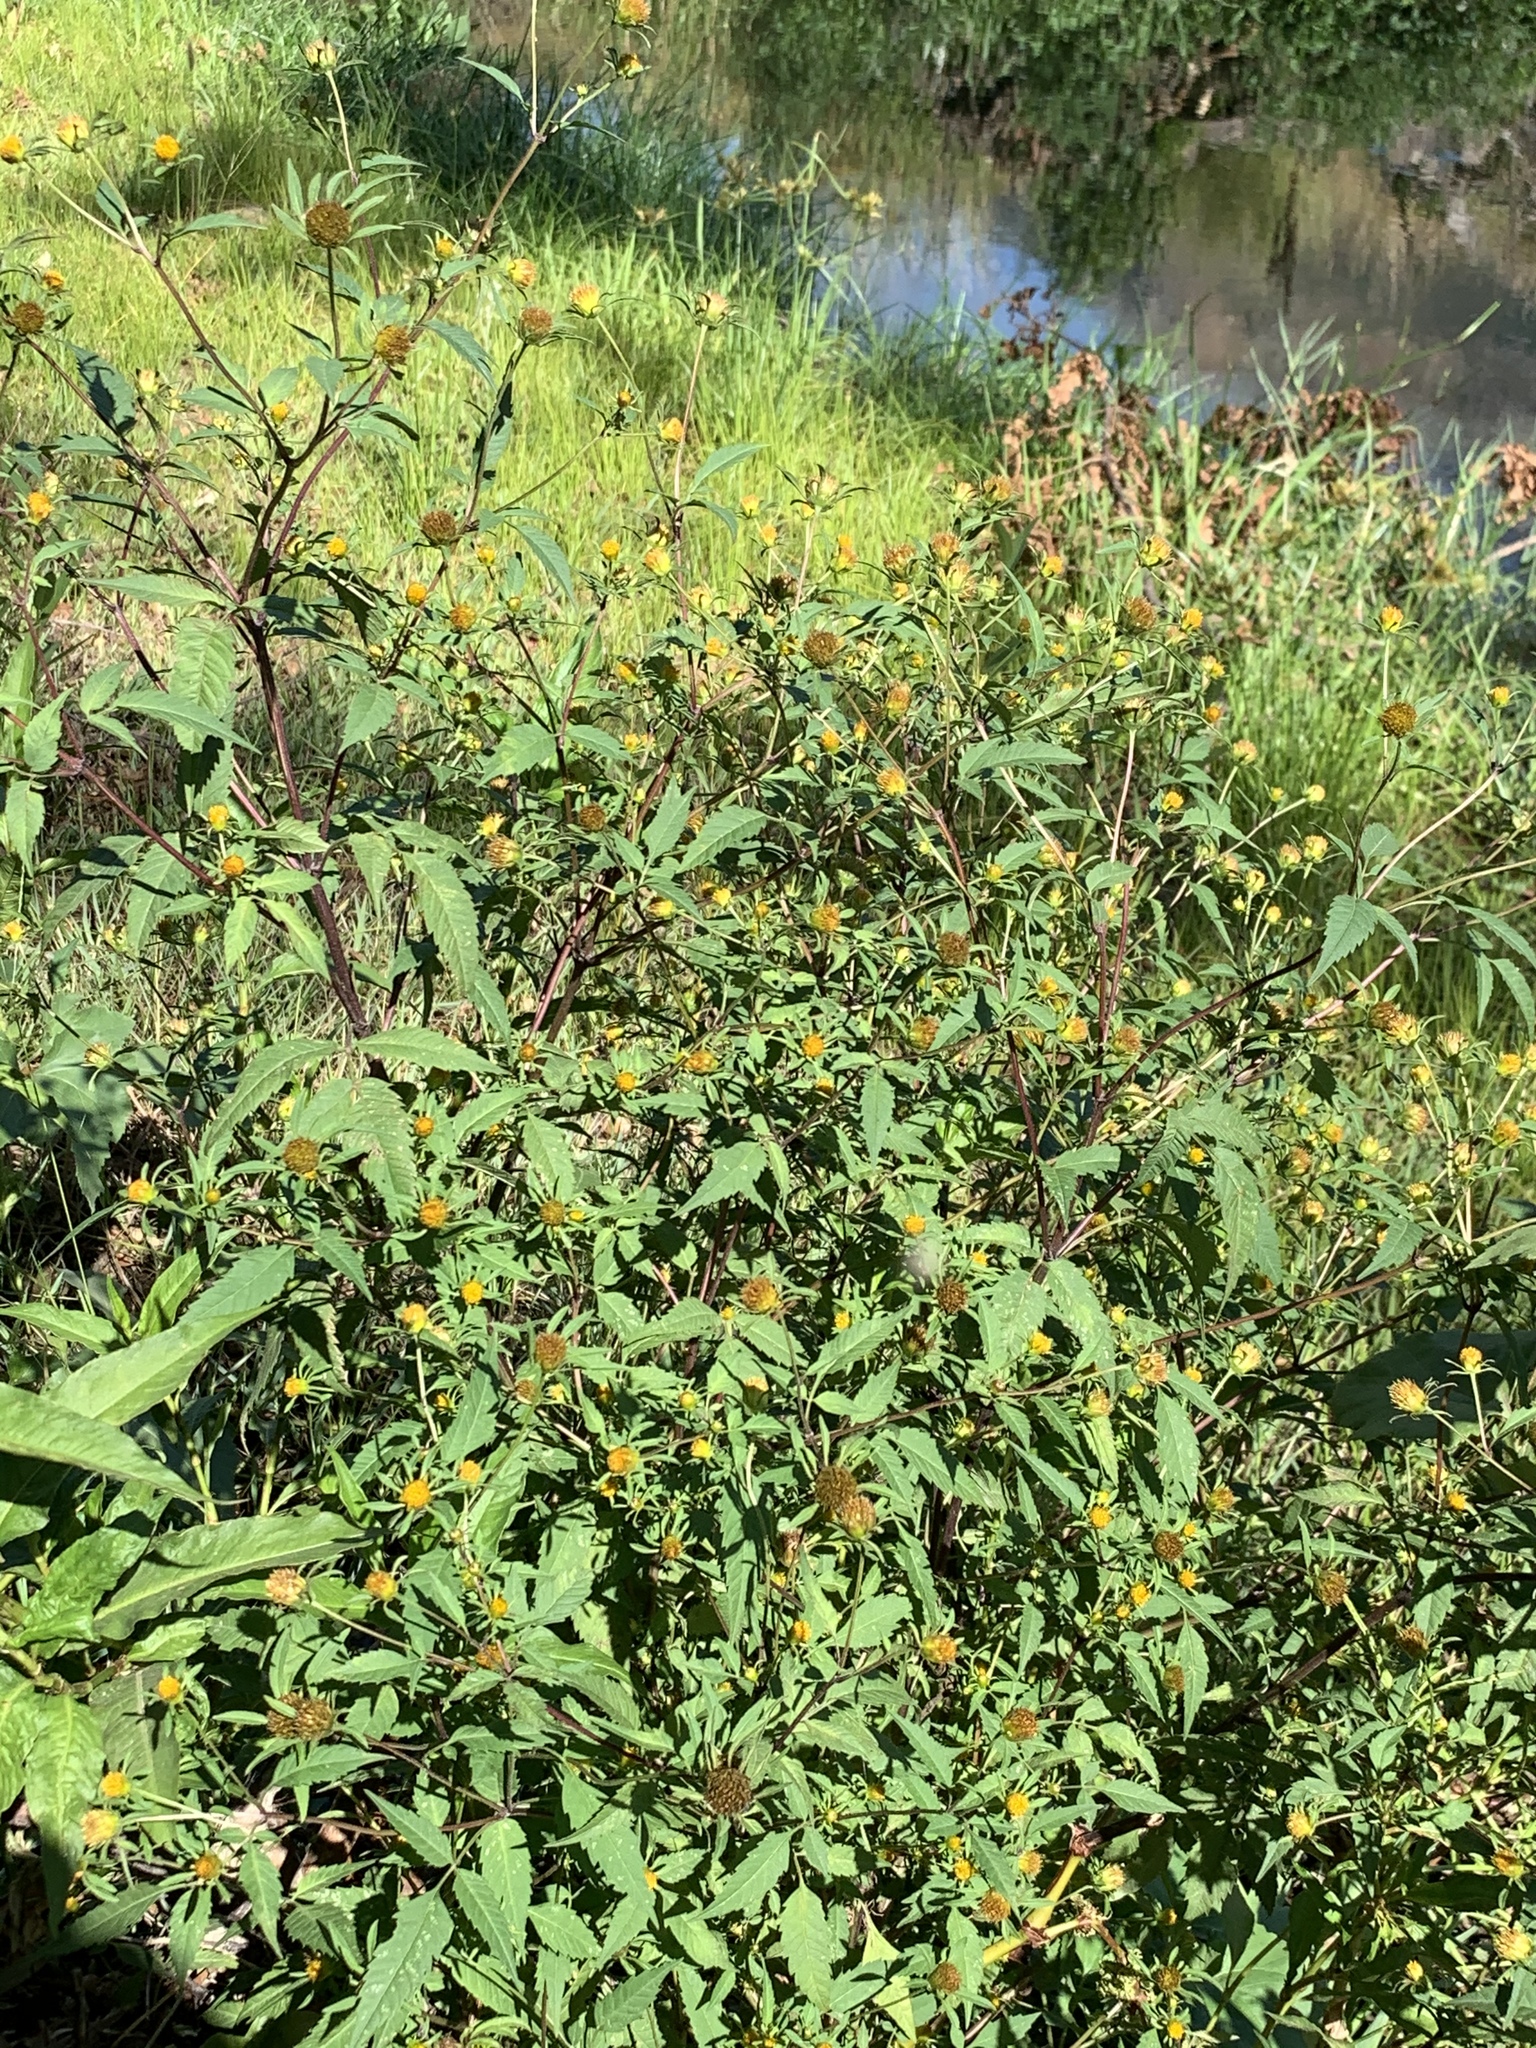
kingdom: Plantae
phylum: Tracheophyta
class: Magnoliopsida
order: Asterales
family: Asteraceae
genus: Bidens
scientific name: Bidens pilosa
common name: Black-jack
